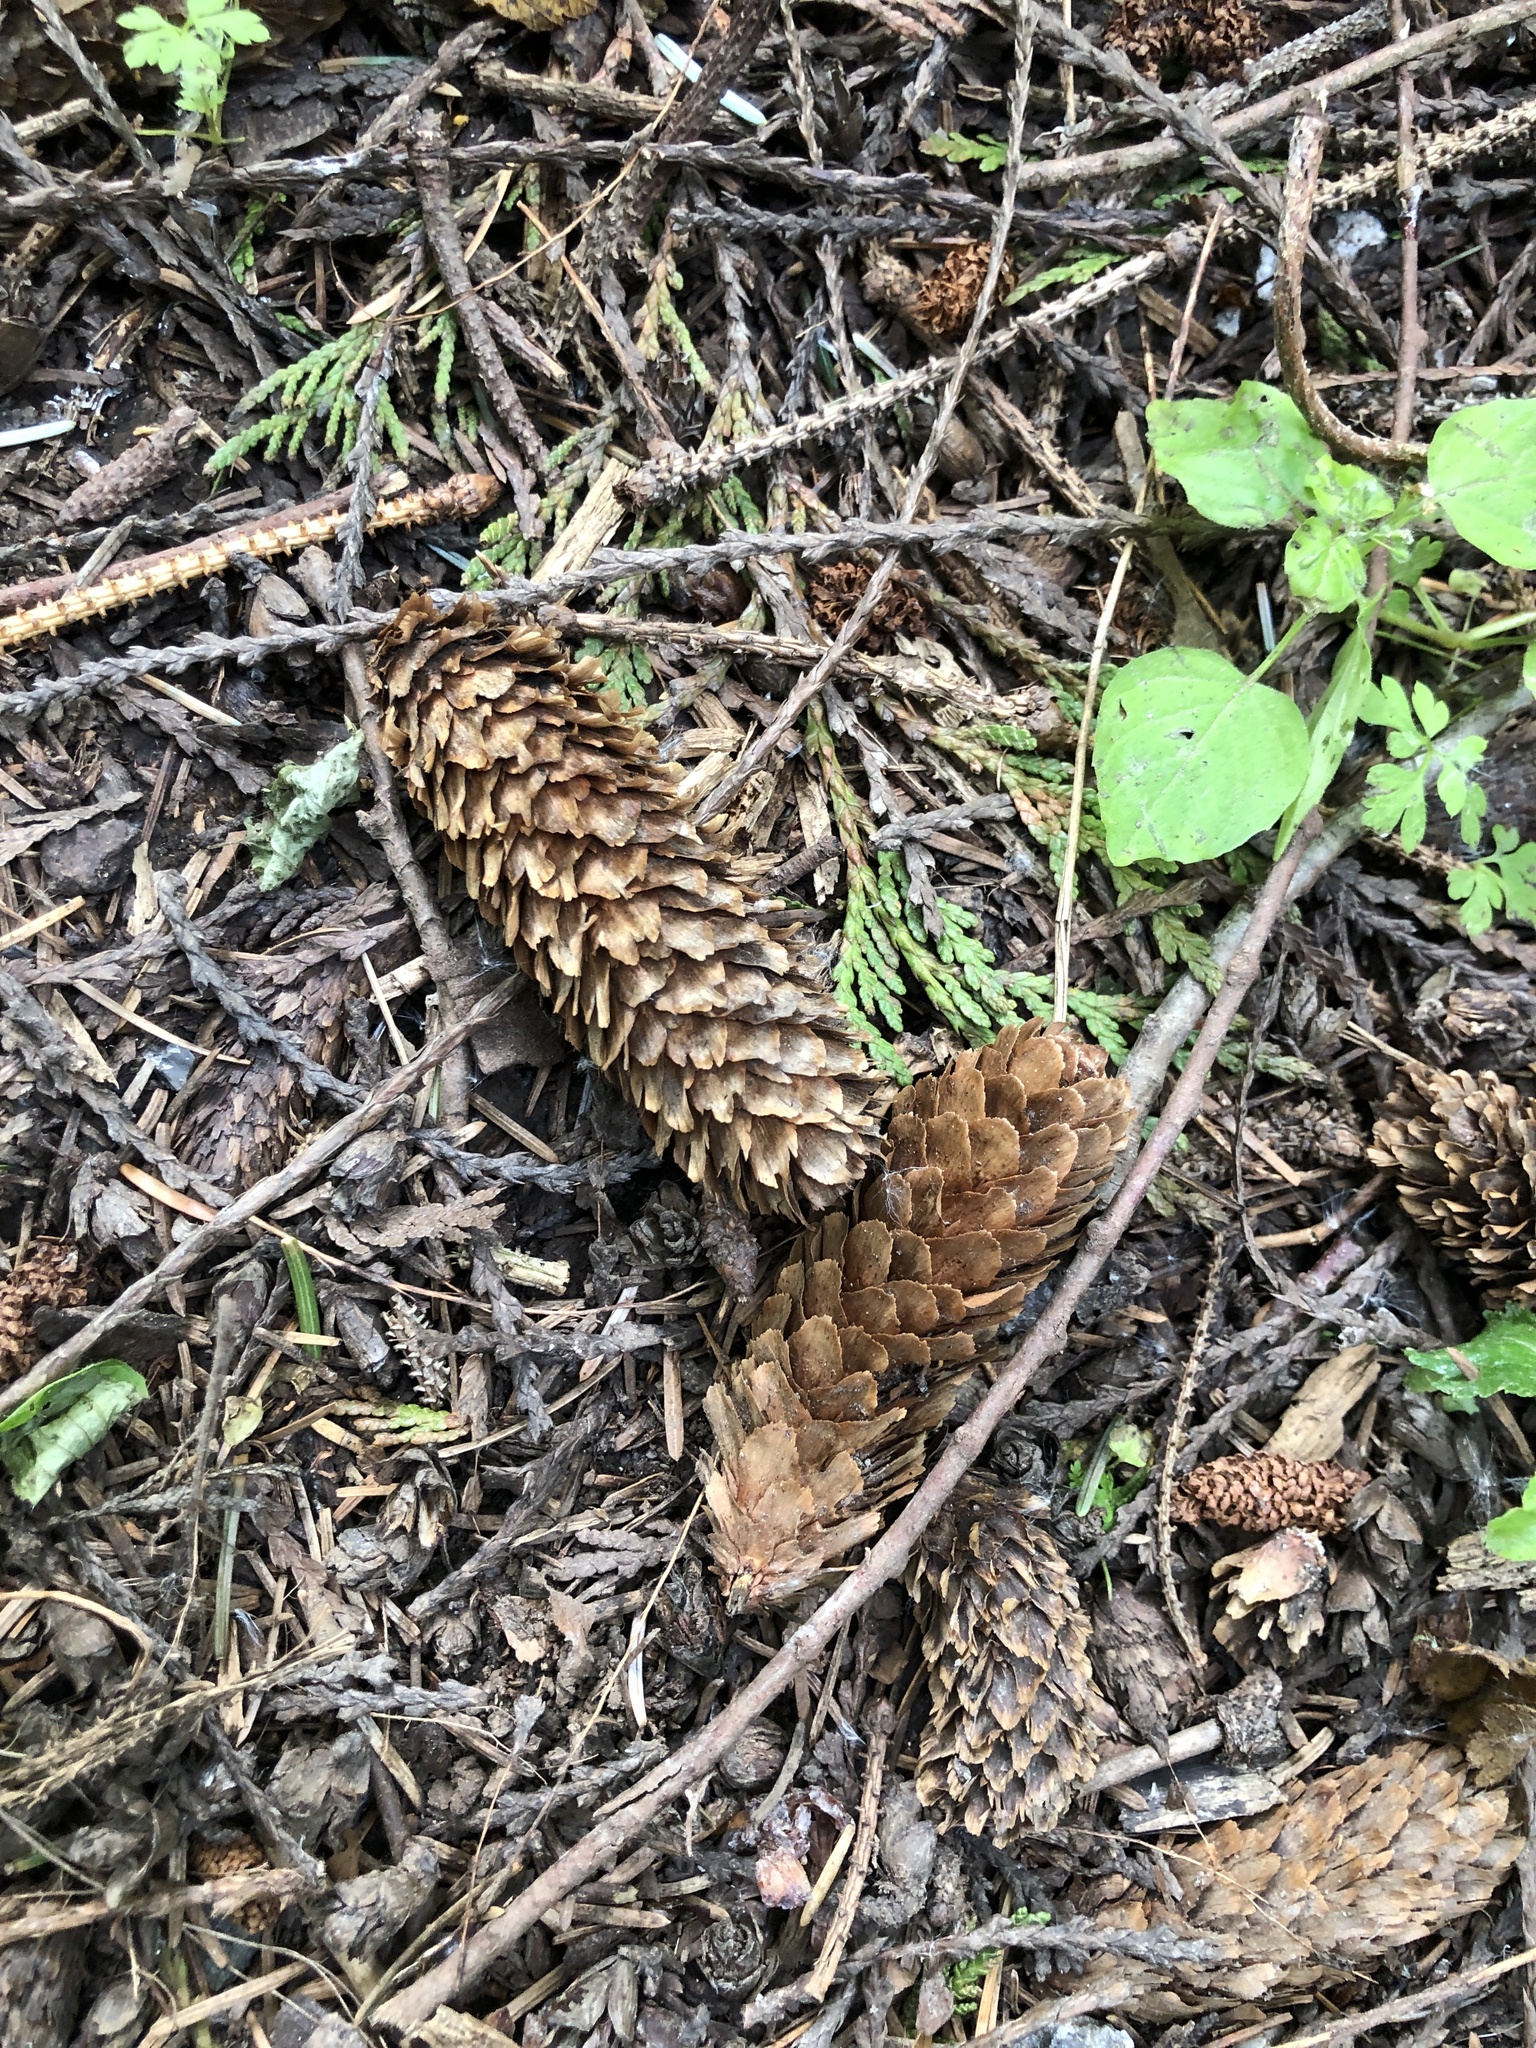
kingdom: Plantae
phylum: Tracheophyta
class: Pinopsida
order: Pinales
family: Pinaceae
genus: Picea
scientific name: Picea sitchensis
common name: Sitka spruce
